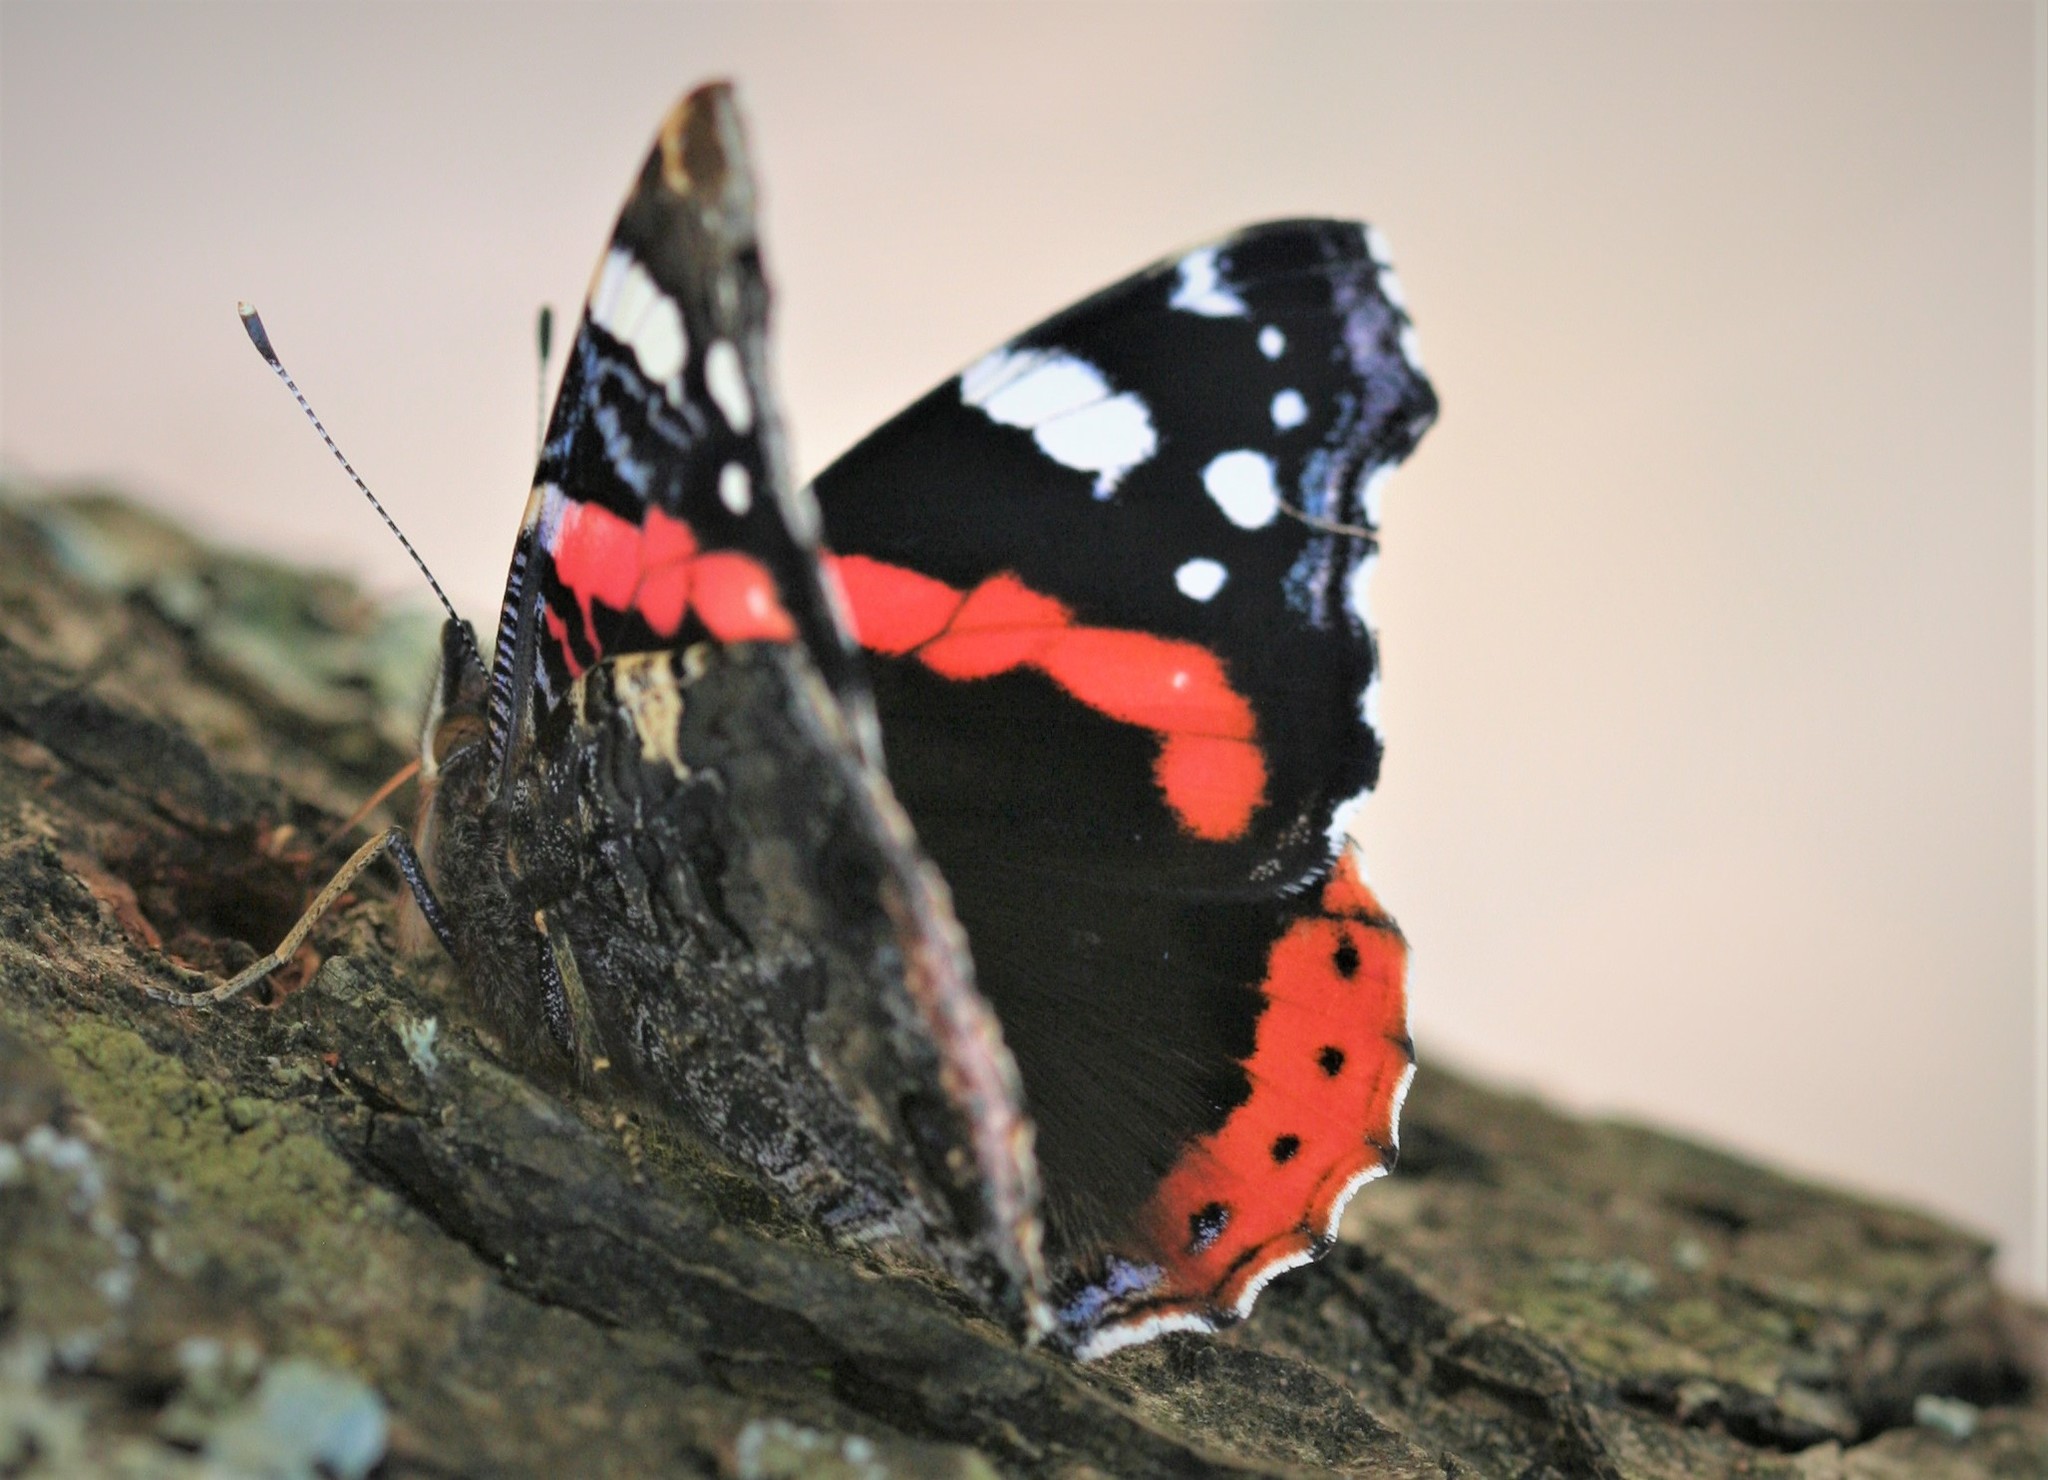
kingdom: Animalia
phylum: Arthropoda
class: Insecta
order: Lepidoptera
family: Nymphalidae
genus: Vanessa
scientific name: Vanessa atalanta
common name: Red admiral
